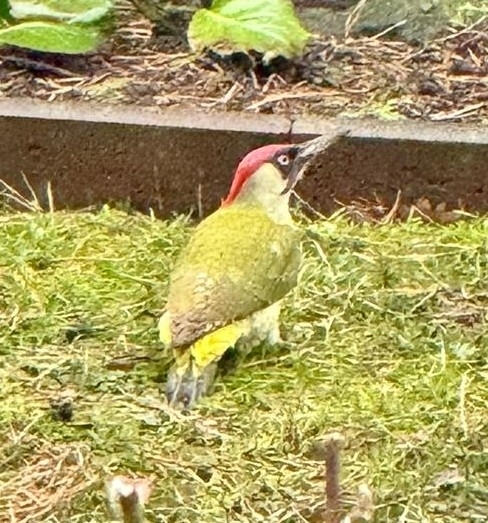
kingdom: Animalia
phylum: Chordata
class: Aves
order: Piciformes
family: Picidae
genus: Picus
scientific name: Picus viridis
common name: European green woodpecker
